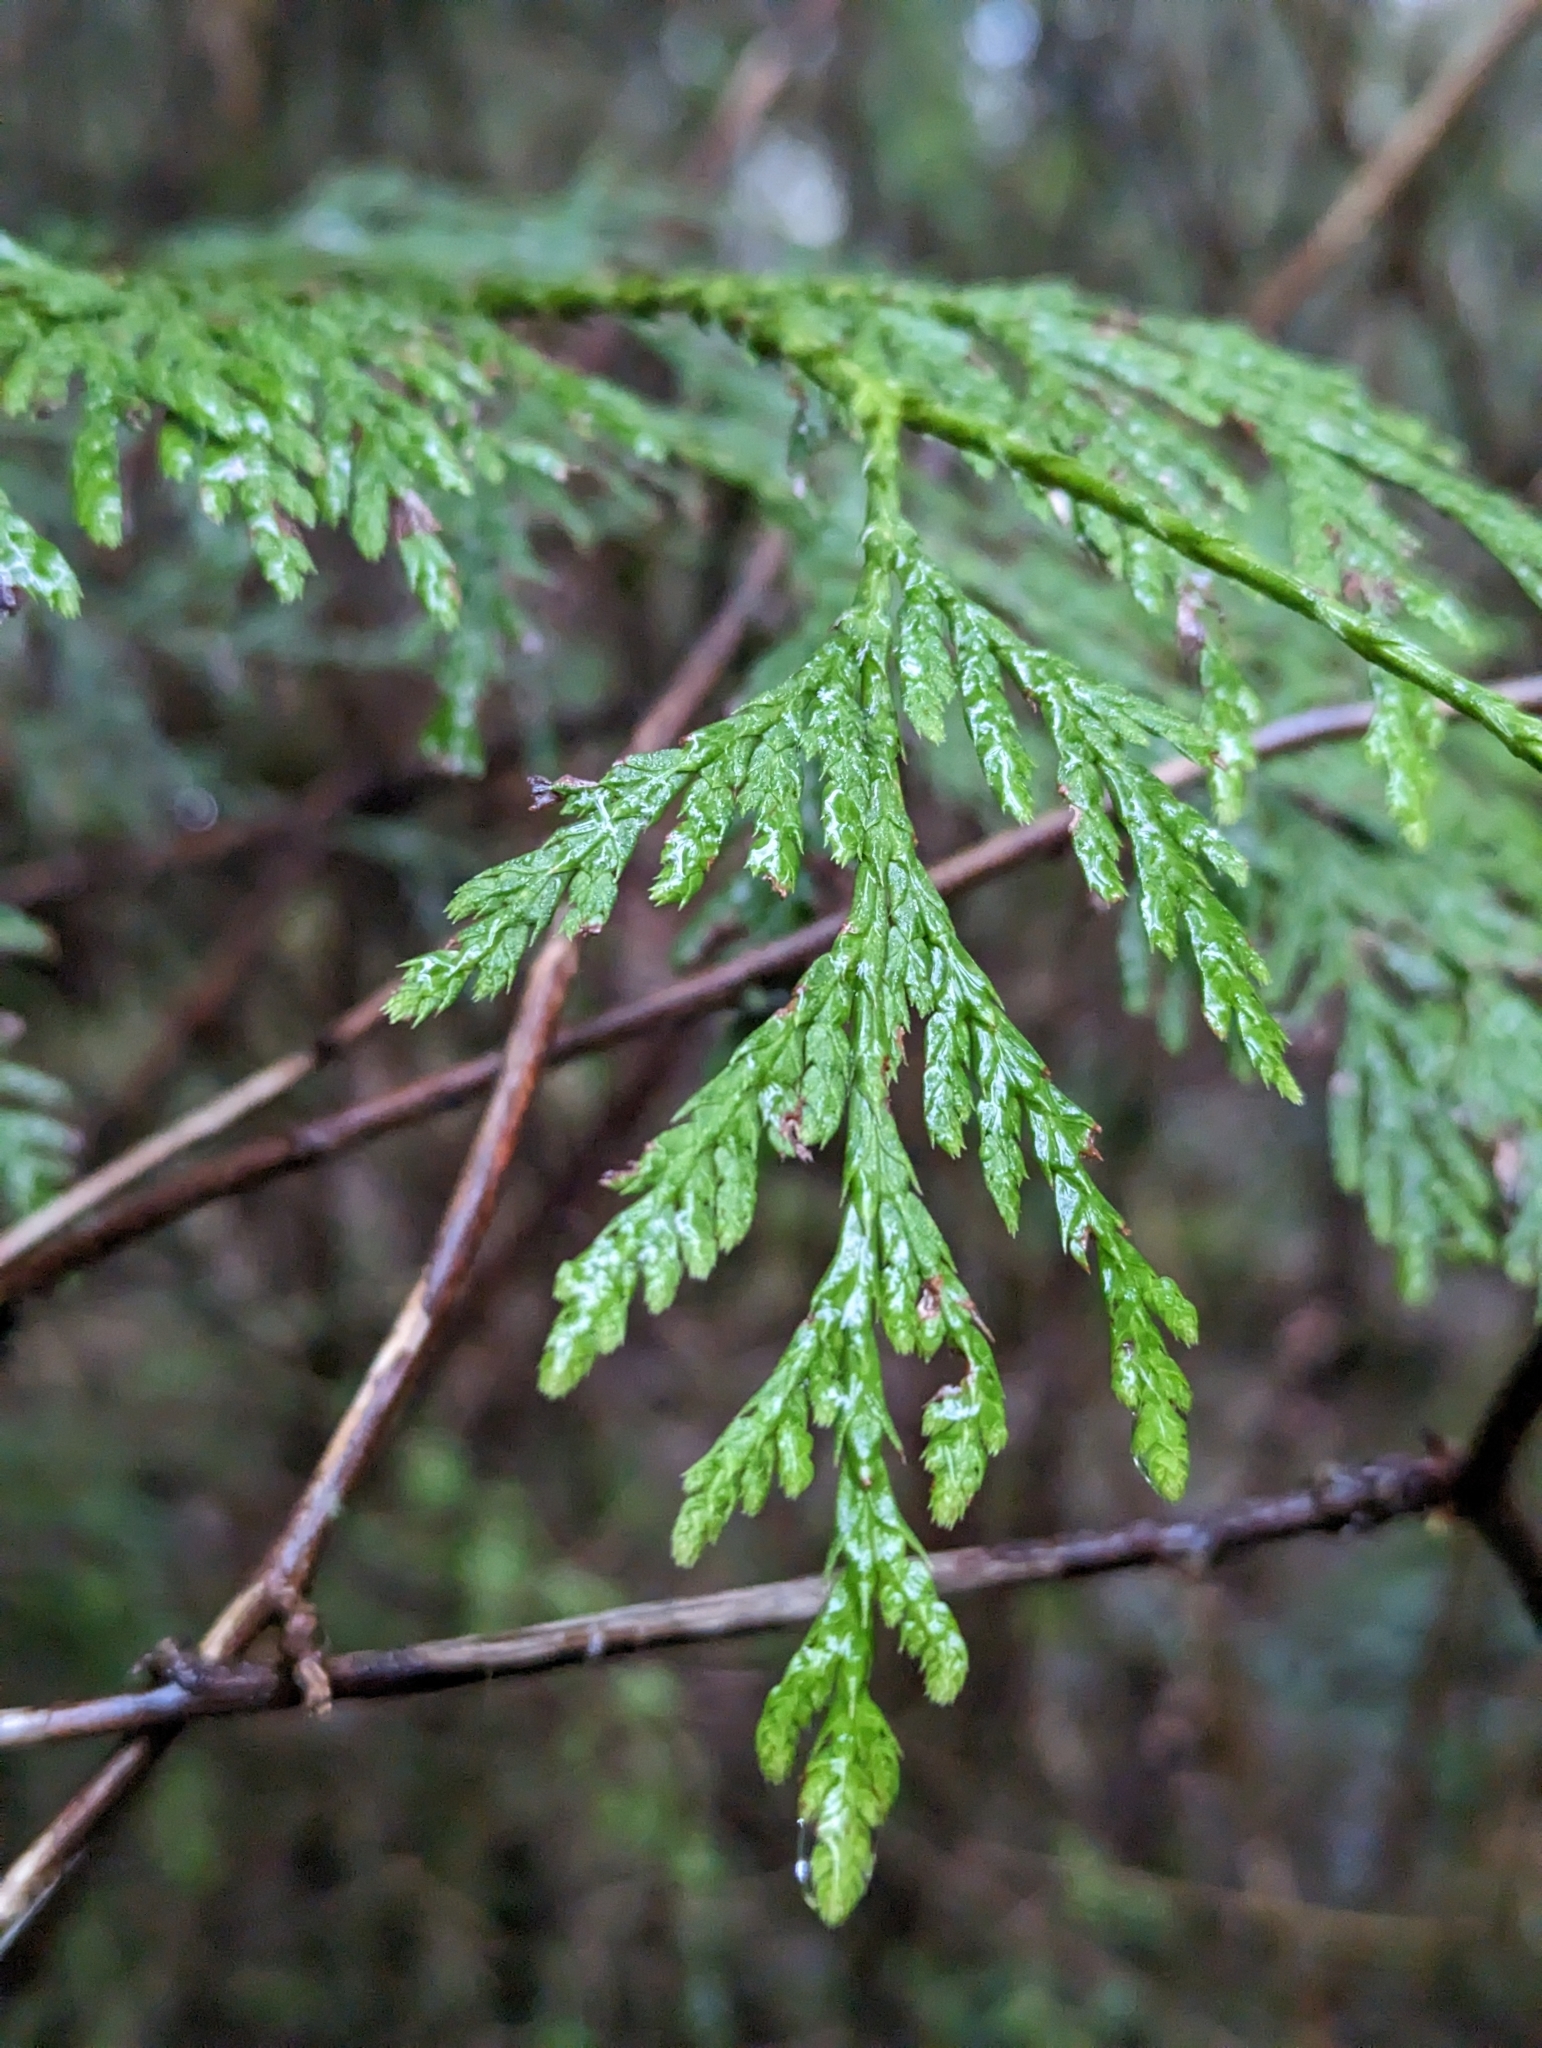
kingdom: Plantae
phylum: Tracheophyta
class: Pinopsida
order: Pinales
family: Cupressaceae
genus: Thuja
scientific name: Thuja plicata
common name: Western red-cedar
